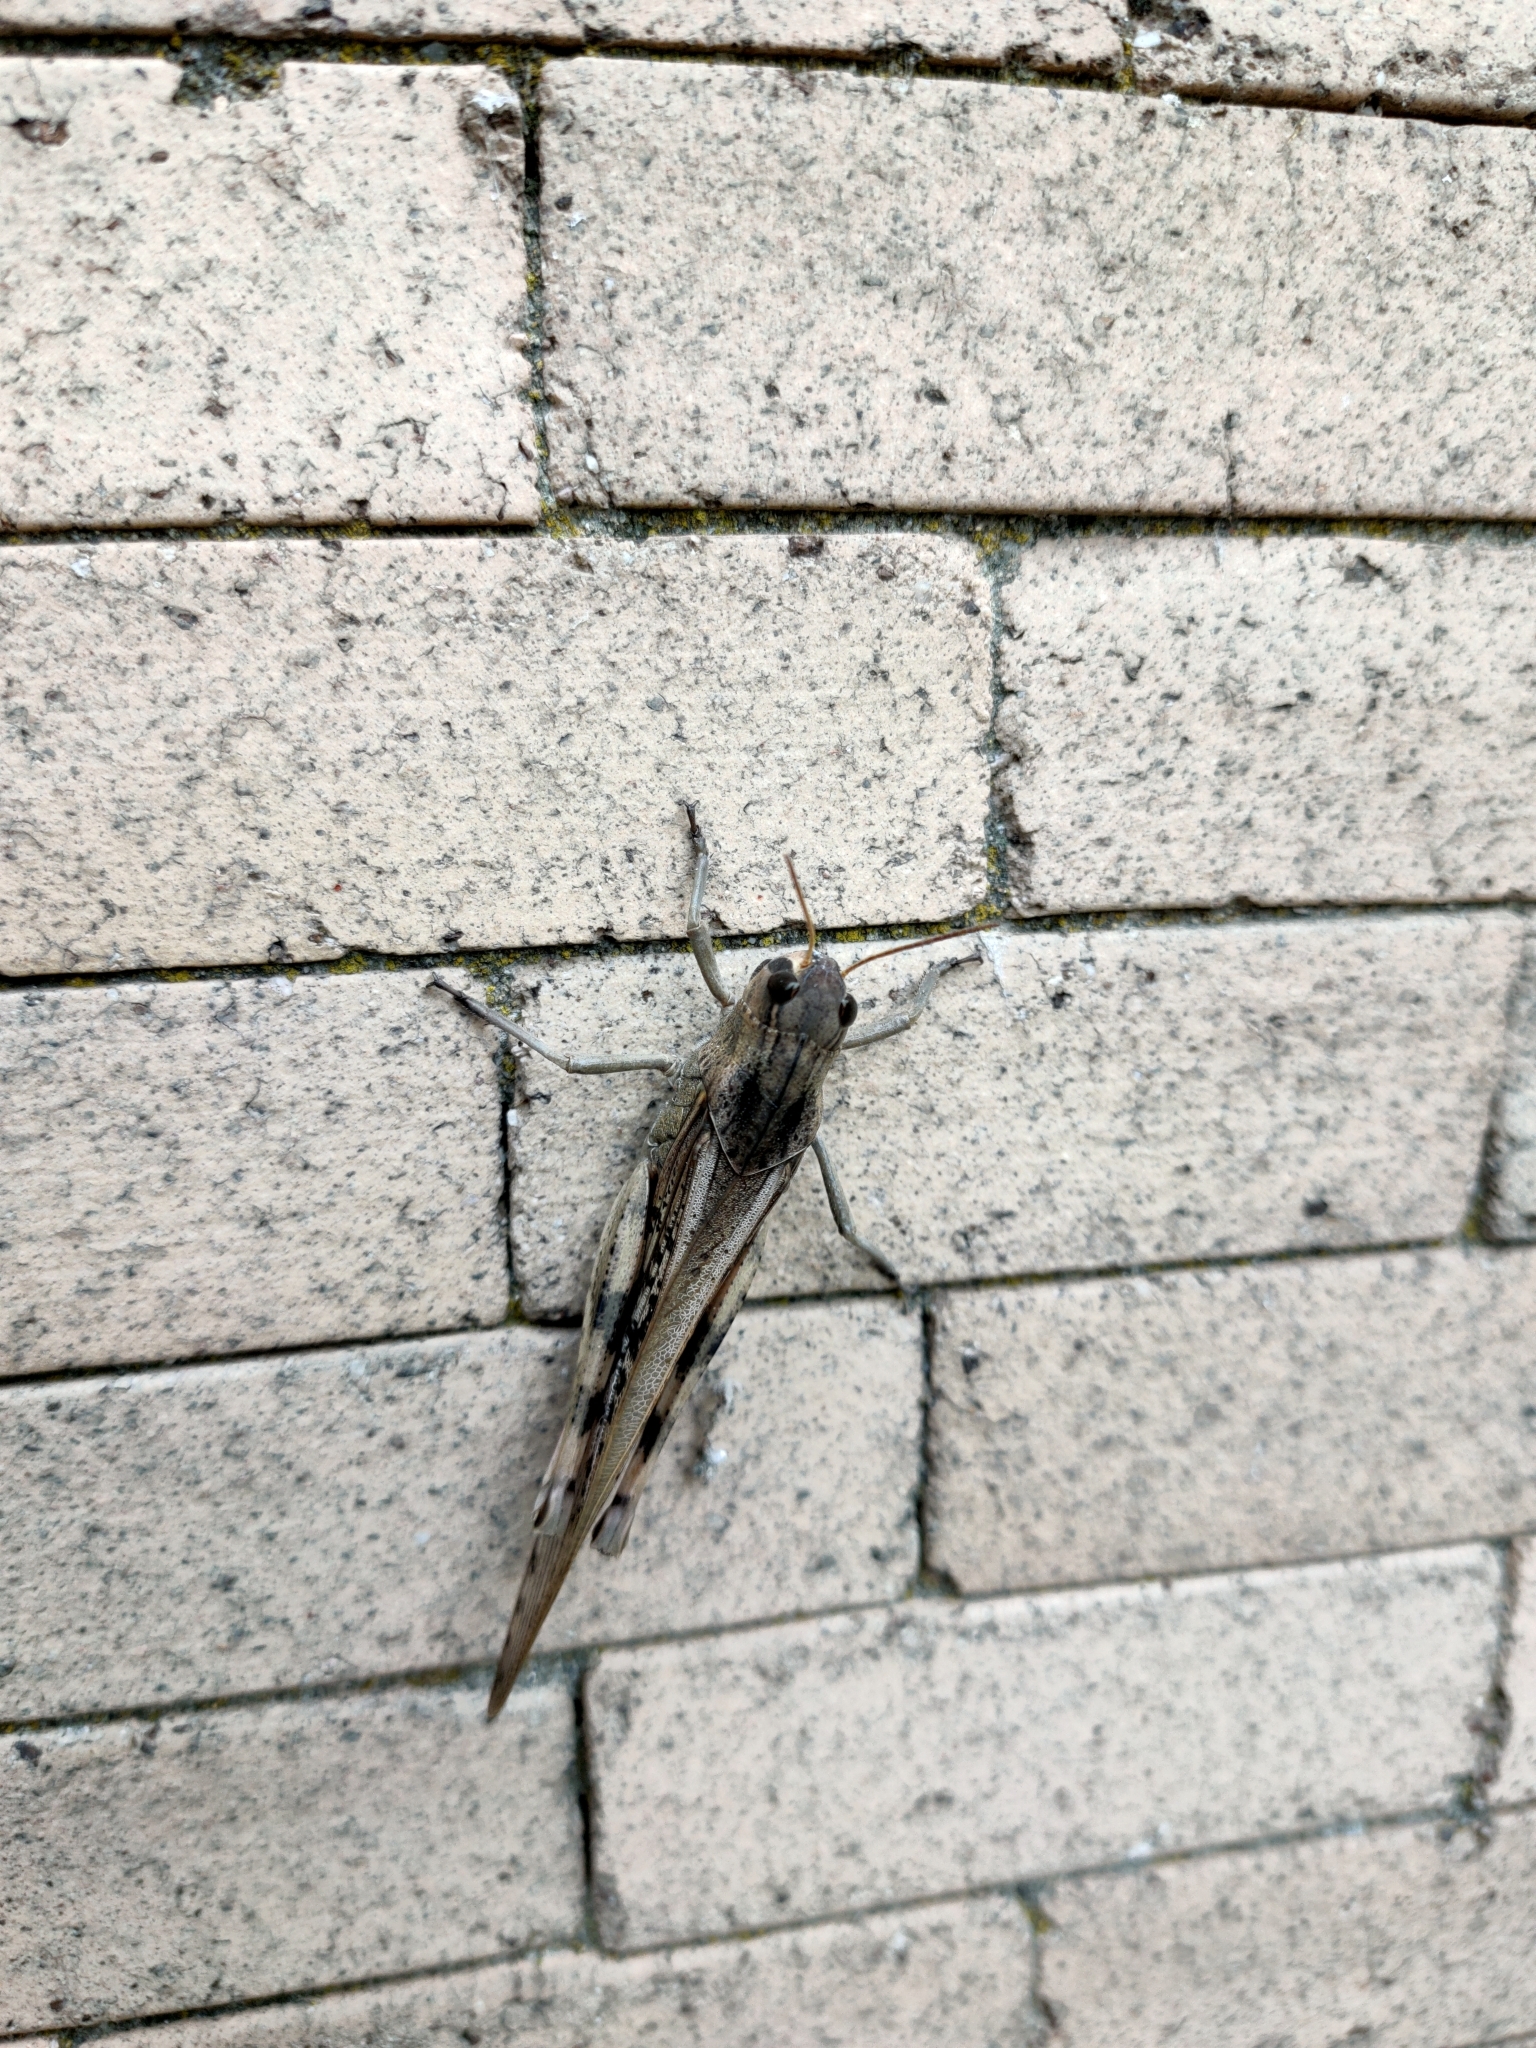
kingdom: Animalia
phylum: Arthropoda
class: Insecta
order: Orthoptera
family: Acrididae
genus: Locusta
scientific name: Locusta migratoria
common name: Migratory locust
